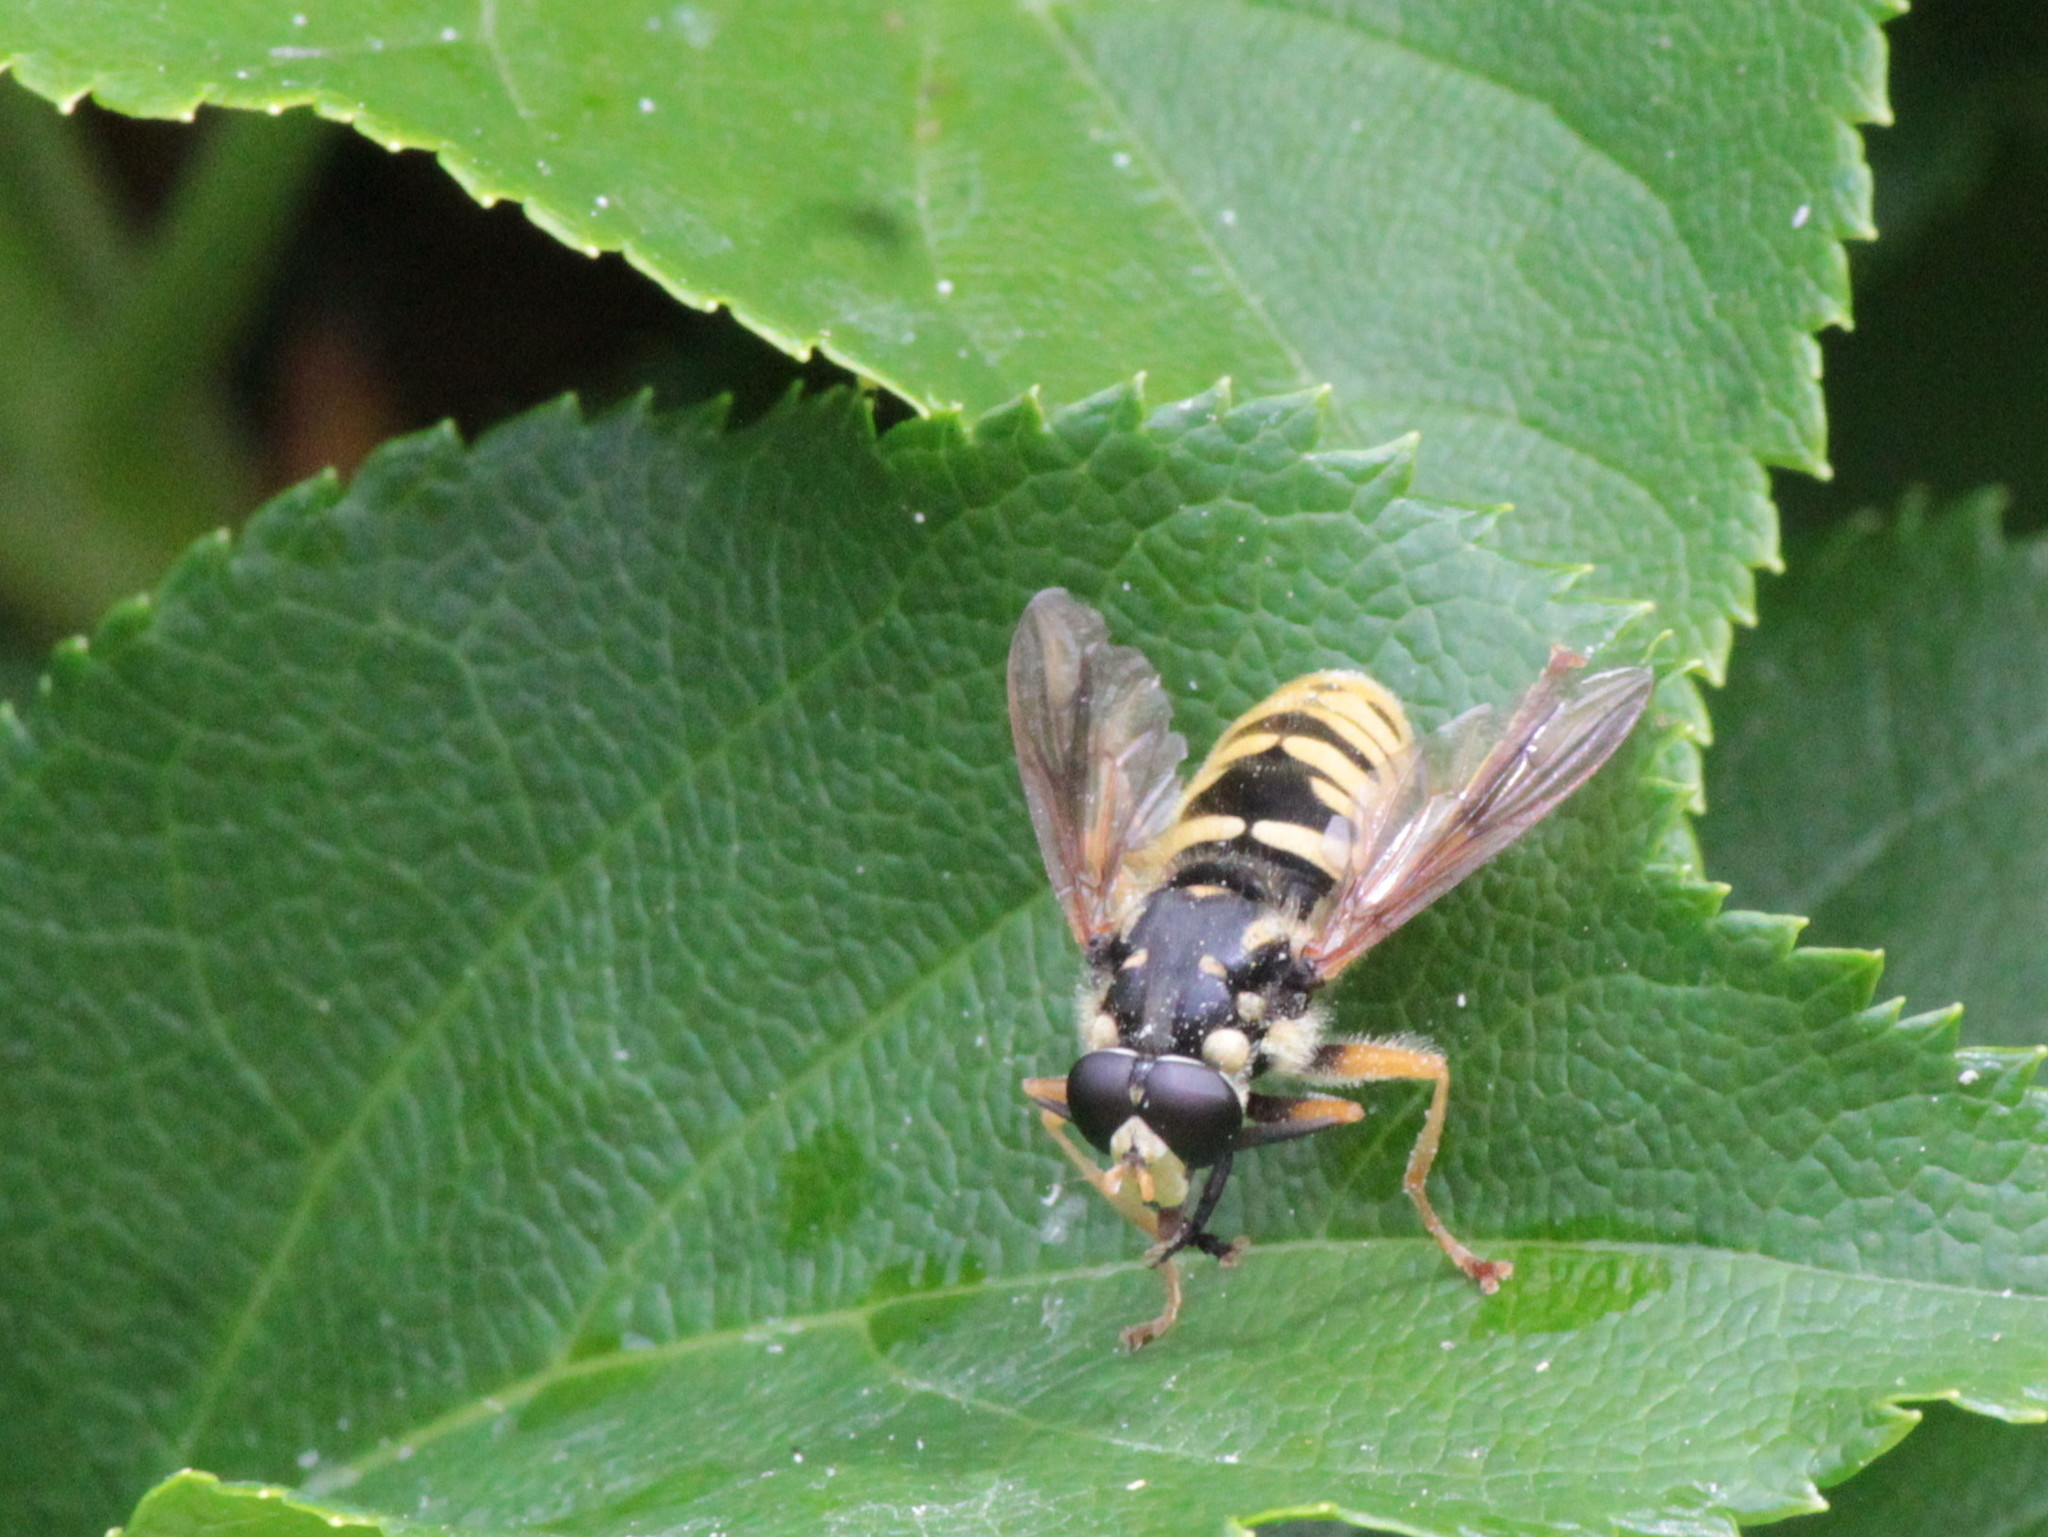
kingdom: Animalia
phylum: Arthropoda
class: Insecta
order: Diptera
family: Syrphidae
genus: Temnostoma
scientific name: Temnostoma alternans
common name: Wasp-like falsehorn
